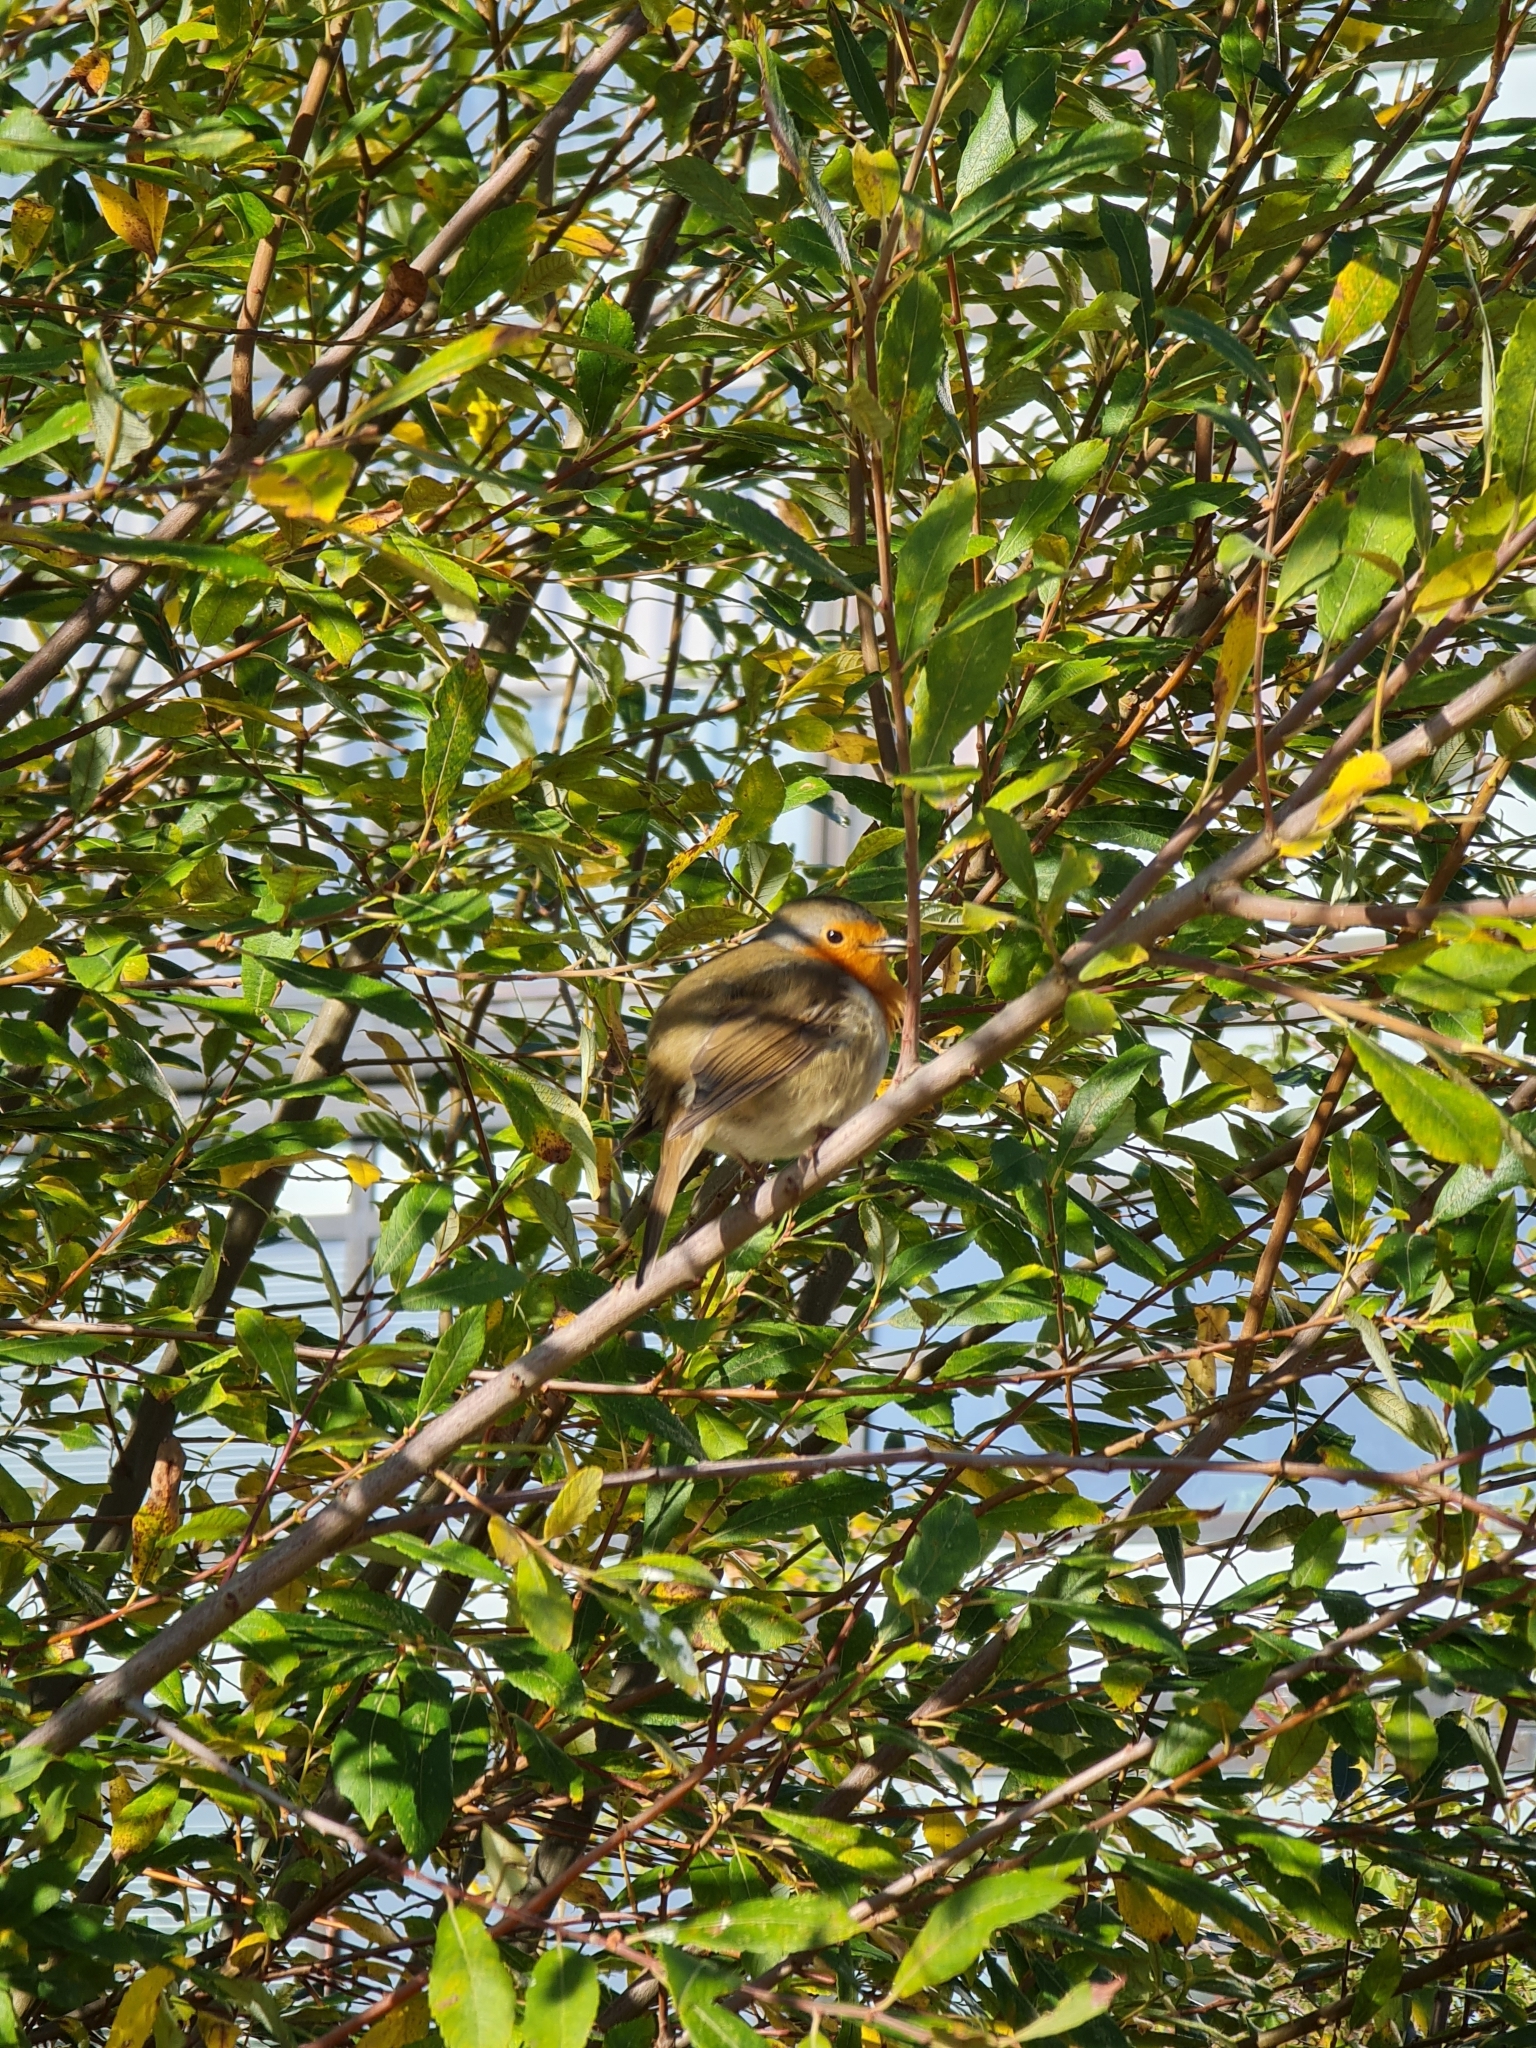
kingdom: Animalia
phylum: Chordata
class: Aves
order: Passeriformes
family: Muscicapidae
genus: Erithacus
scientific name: Erithacus rubecula
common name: European robin
